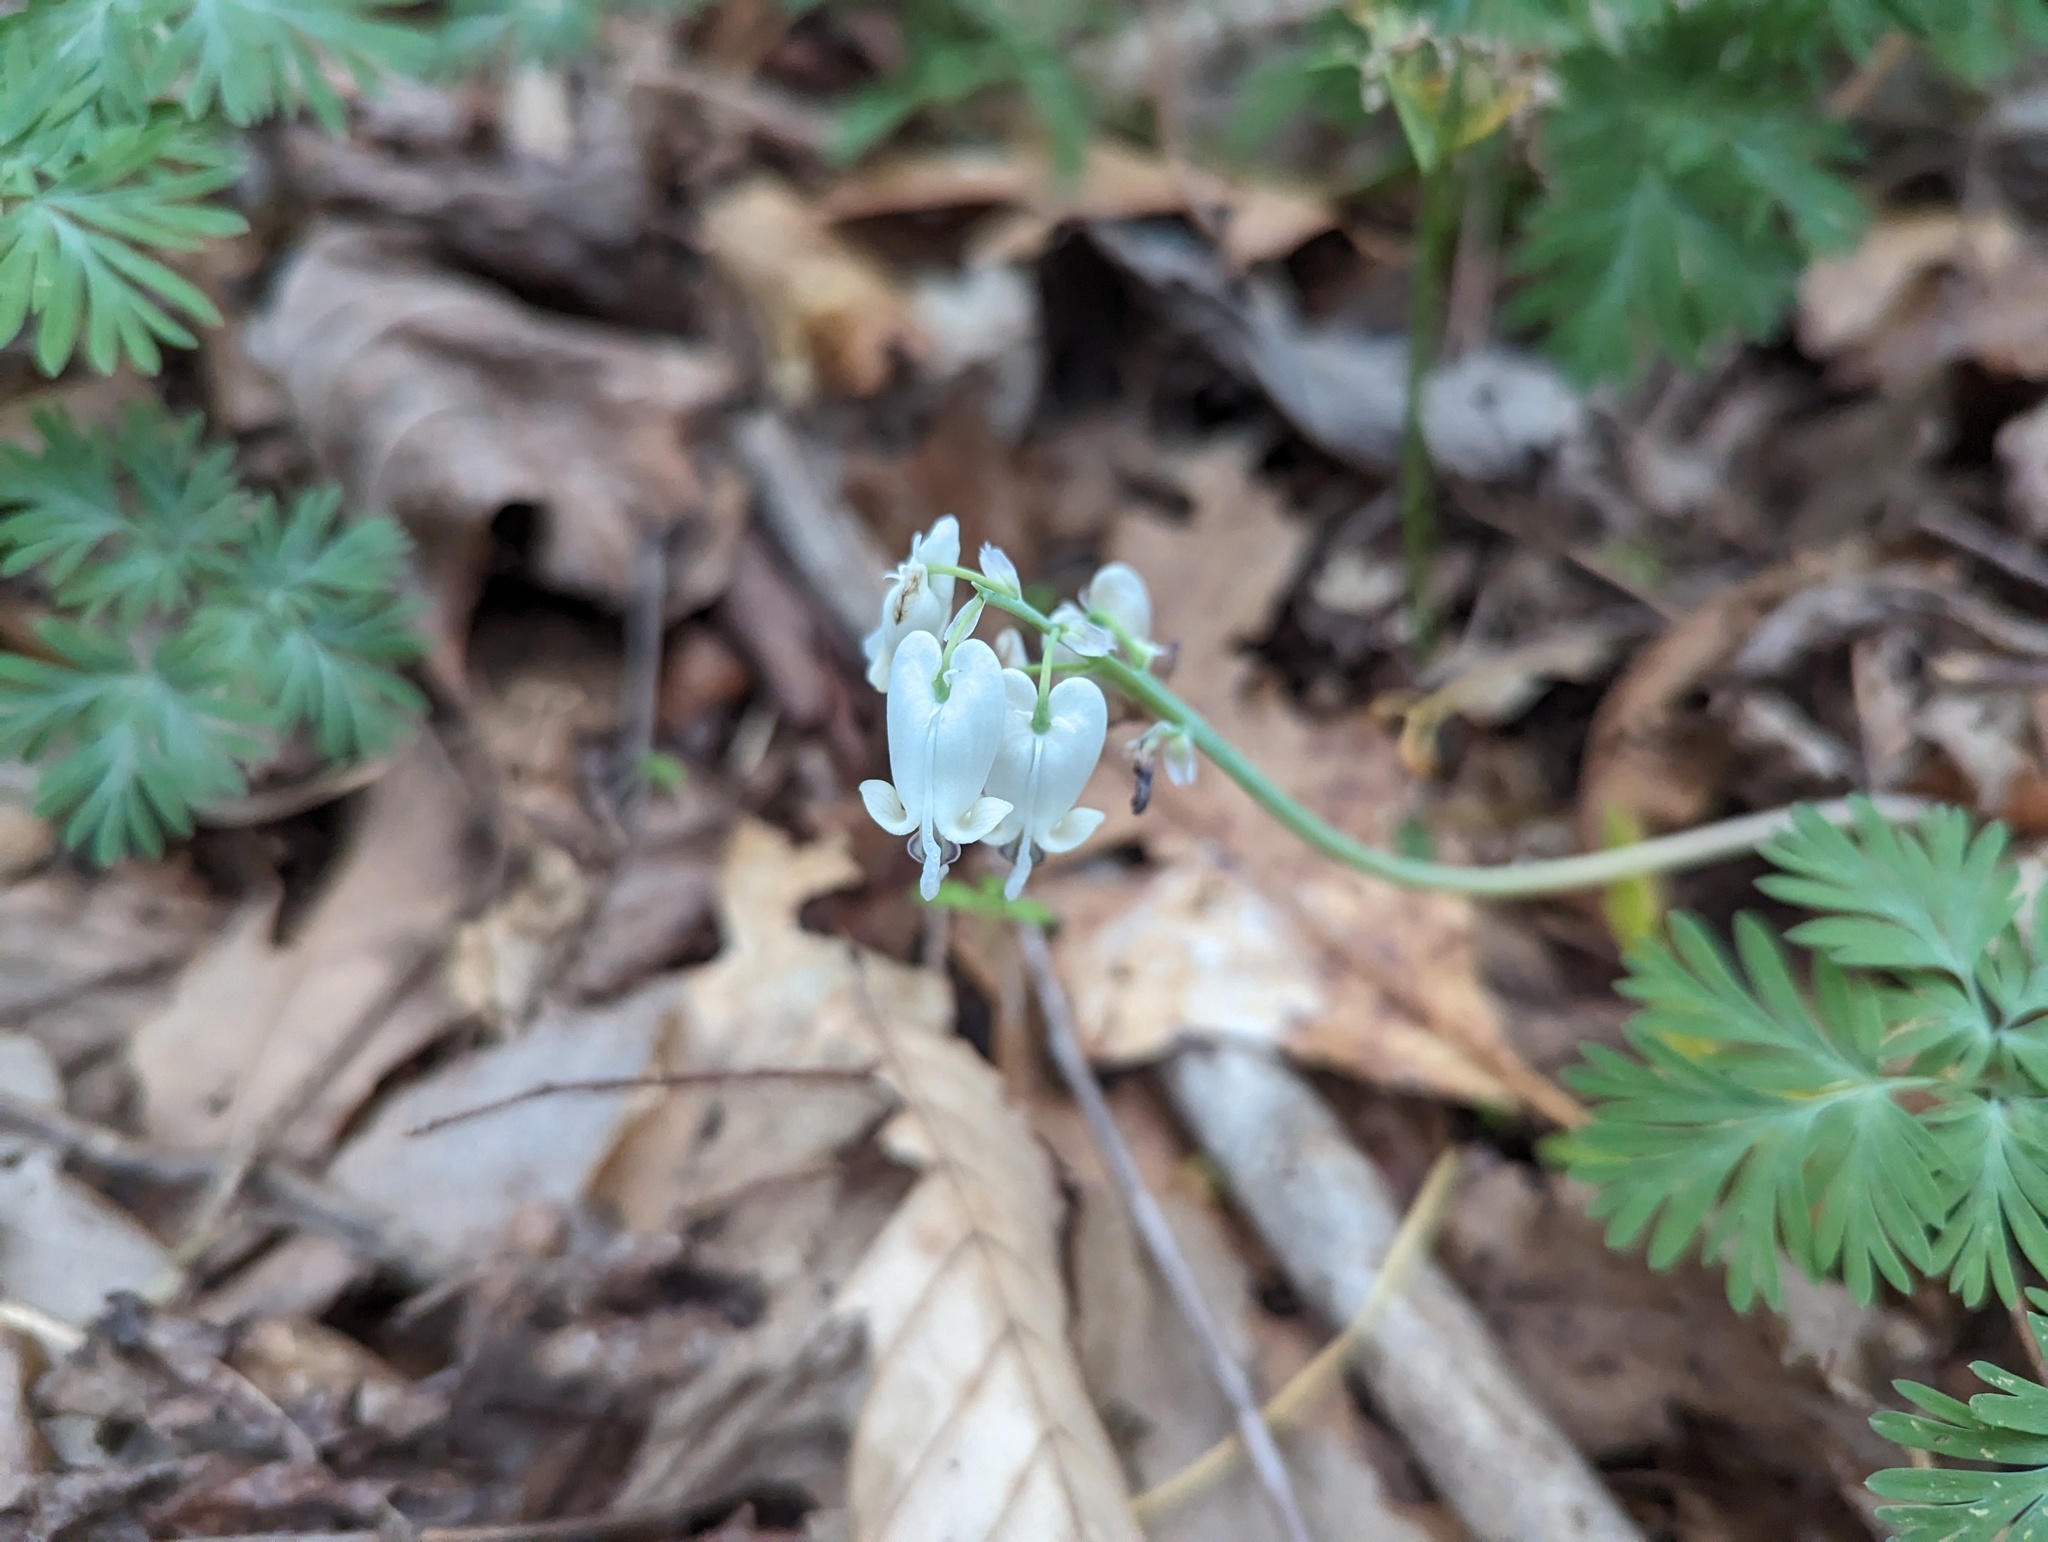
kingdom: Plantae
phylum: Tracheophyta
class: Magnoliopsida
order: Ranunculales
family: Papaveraceae
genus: Dicentra
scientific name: Dicentra canadensis
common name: Squirrel-corn
